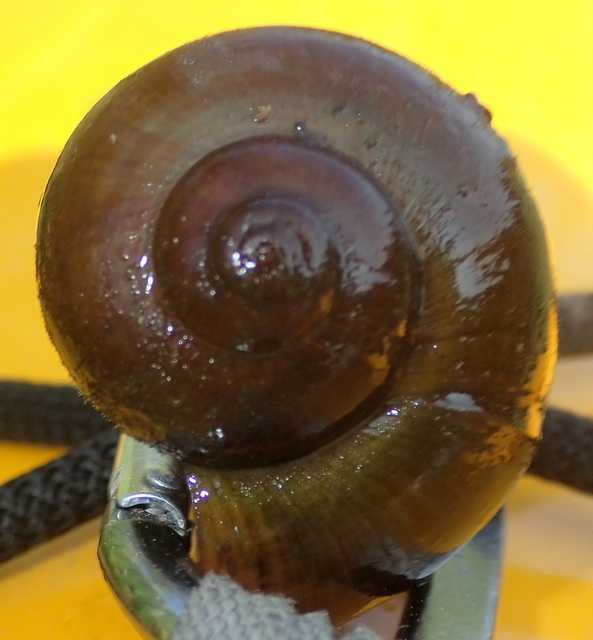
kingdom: Animalia
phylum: Mollusca
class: Gastropoda
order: Architaenioglossa
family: Ampullariidae
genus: Pomacea
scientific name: Pomacea paludosa
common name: Florida applesnail
